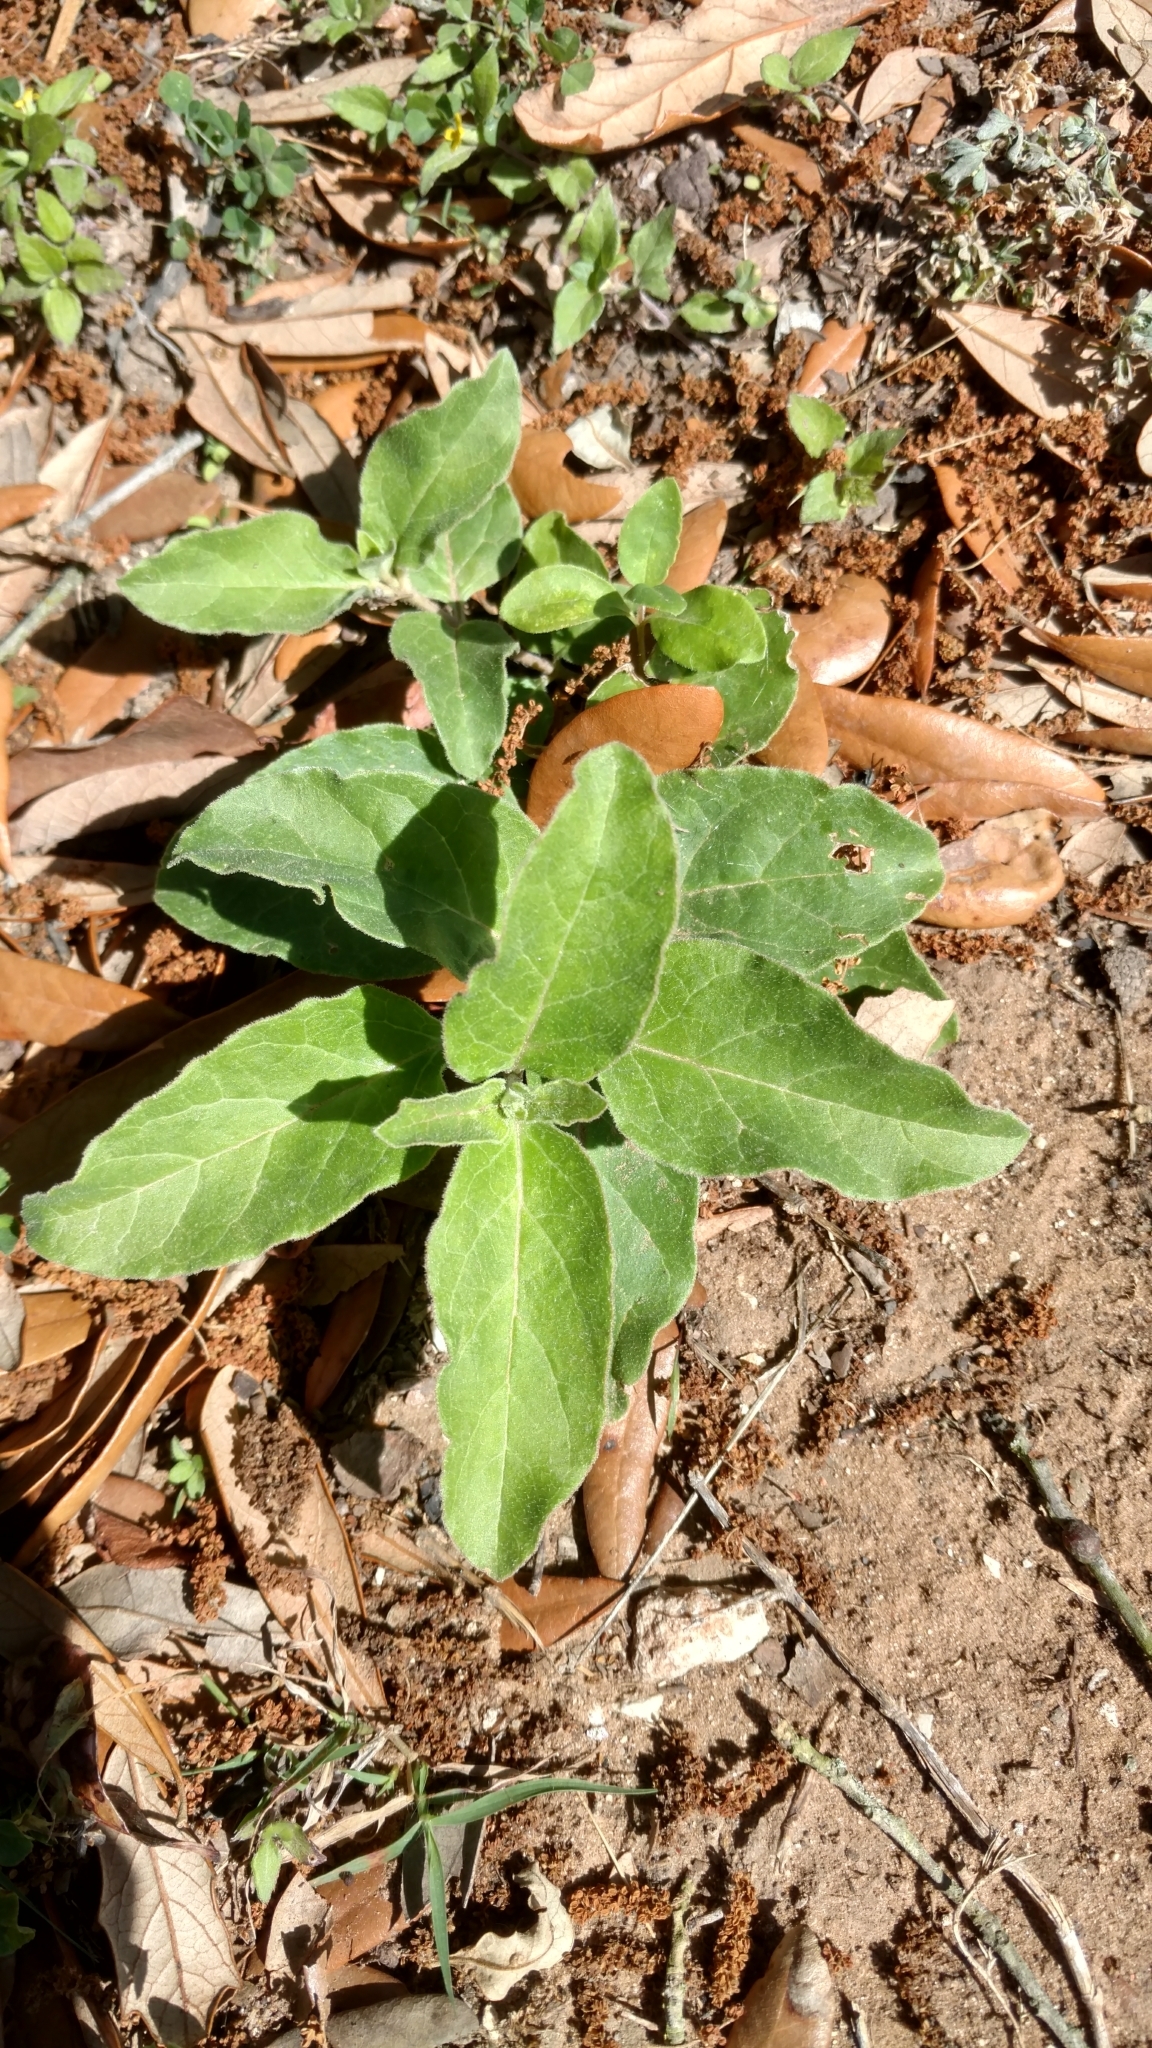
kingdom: Plantae
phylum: Tracheophyta
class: Magnoliopsida
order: Gentianales
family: Apocynaceae
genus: Asclepias
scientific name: Asclepias oenotheroides
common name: Zizotes milkweed
